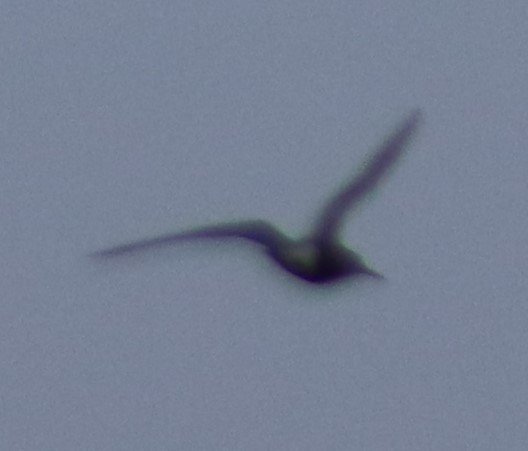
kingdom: Animalia
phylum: Chordata
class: Aves
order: Charadriiformes
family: Laridae
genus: Chlidonias
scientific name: Chlidonias niger
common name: Black tern
